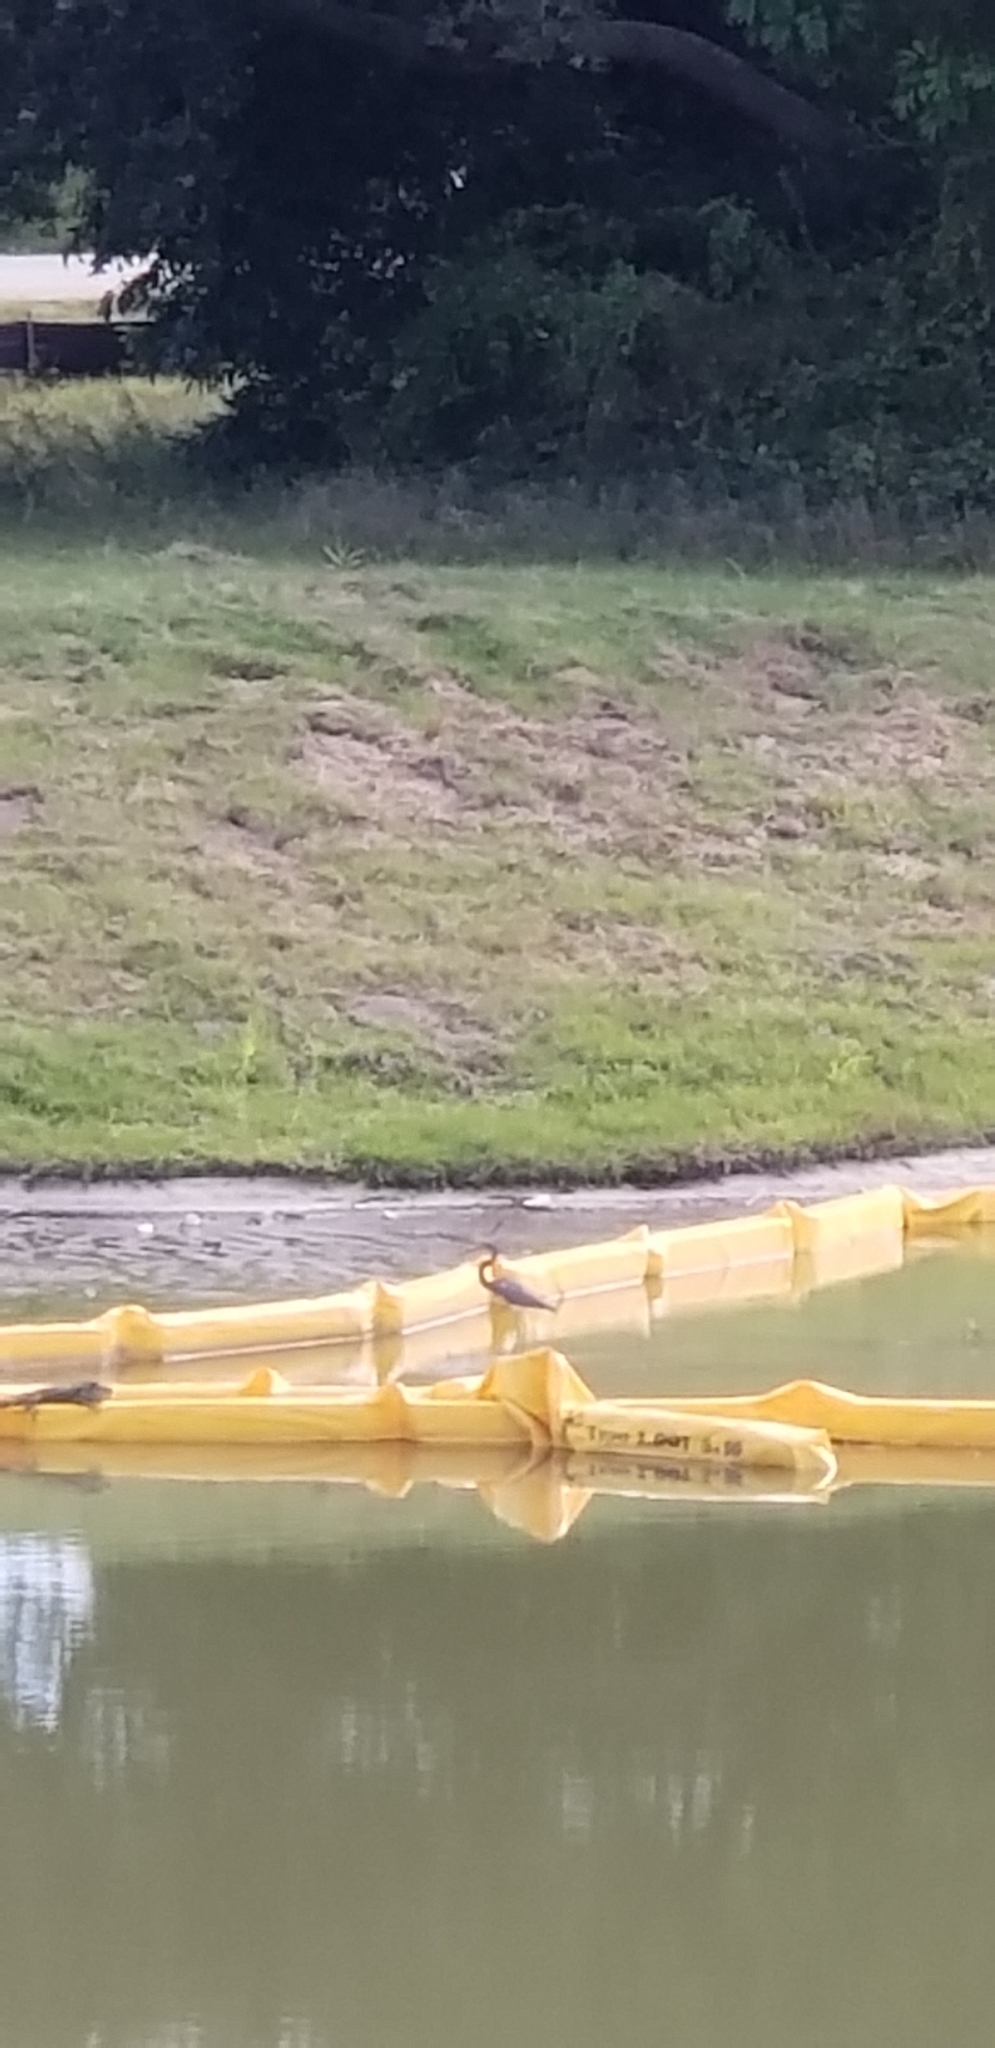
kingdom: Animalia
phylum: Chordata
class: Aves
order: Pelecaniformes
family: Ardeidae
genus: Egretta
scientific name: Egretta tricolor
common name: Tricolored heron
